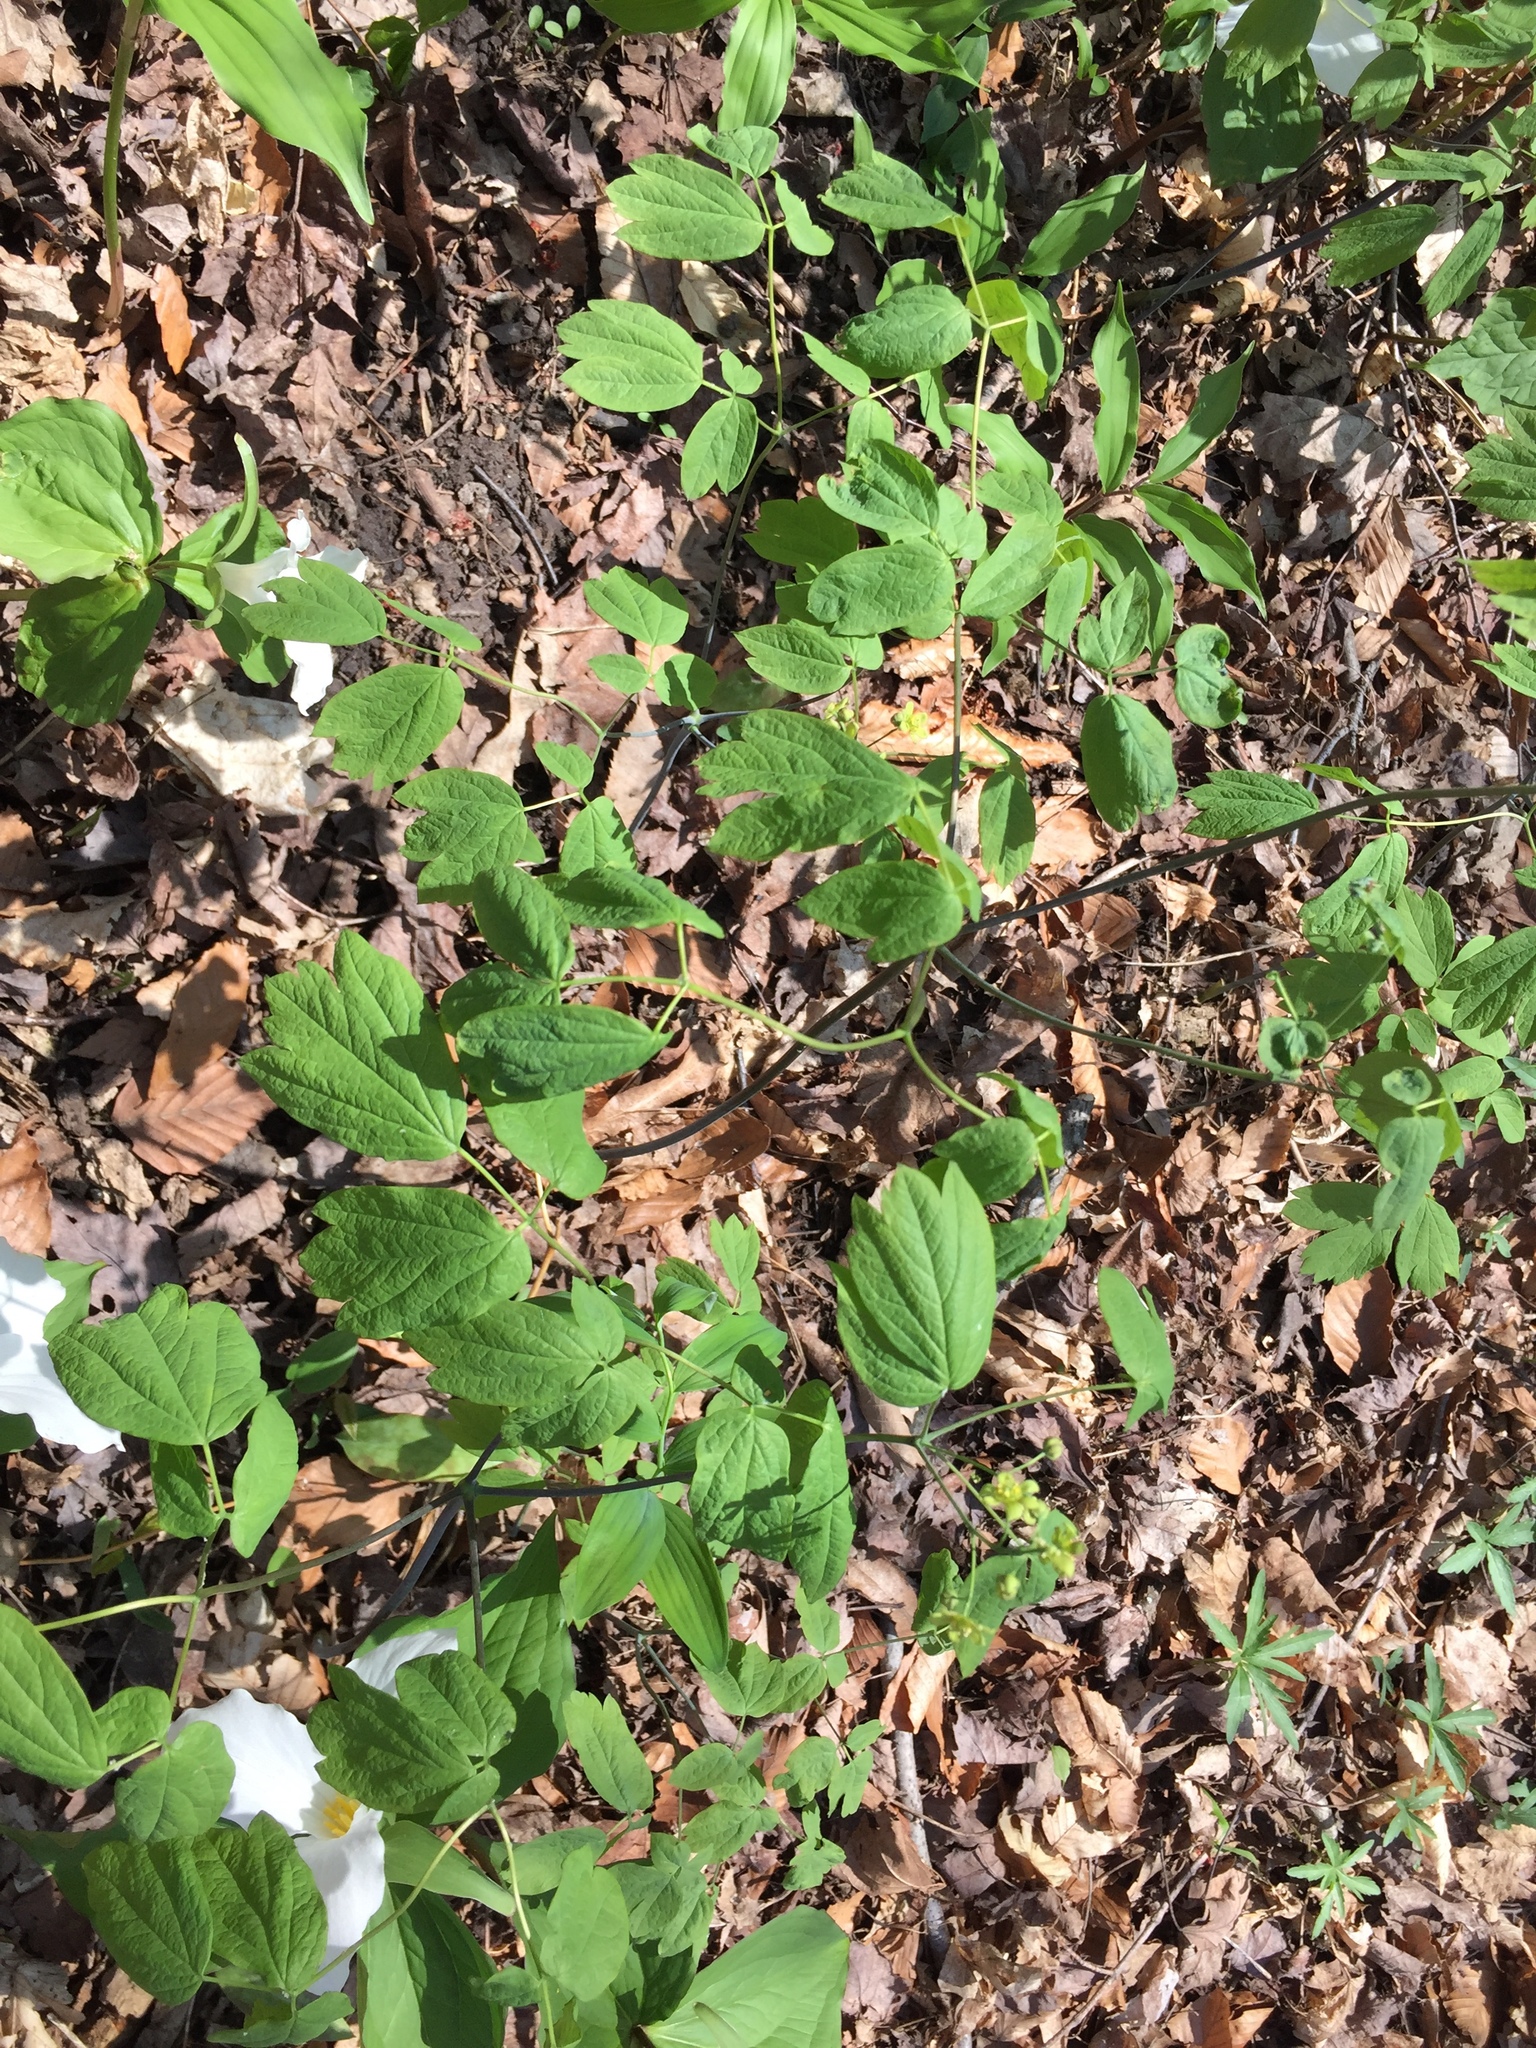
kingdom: Plantae
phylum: Tracheophyta
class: Magnoliopsida
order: Ranunculales
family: Berberidaceae
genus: Caulophyllum
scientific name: Caulophyllum thalictroides
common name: Blue cohosh
